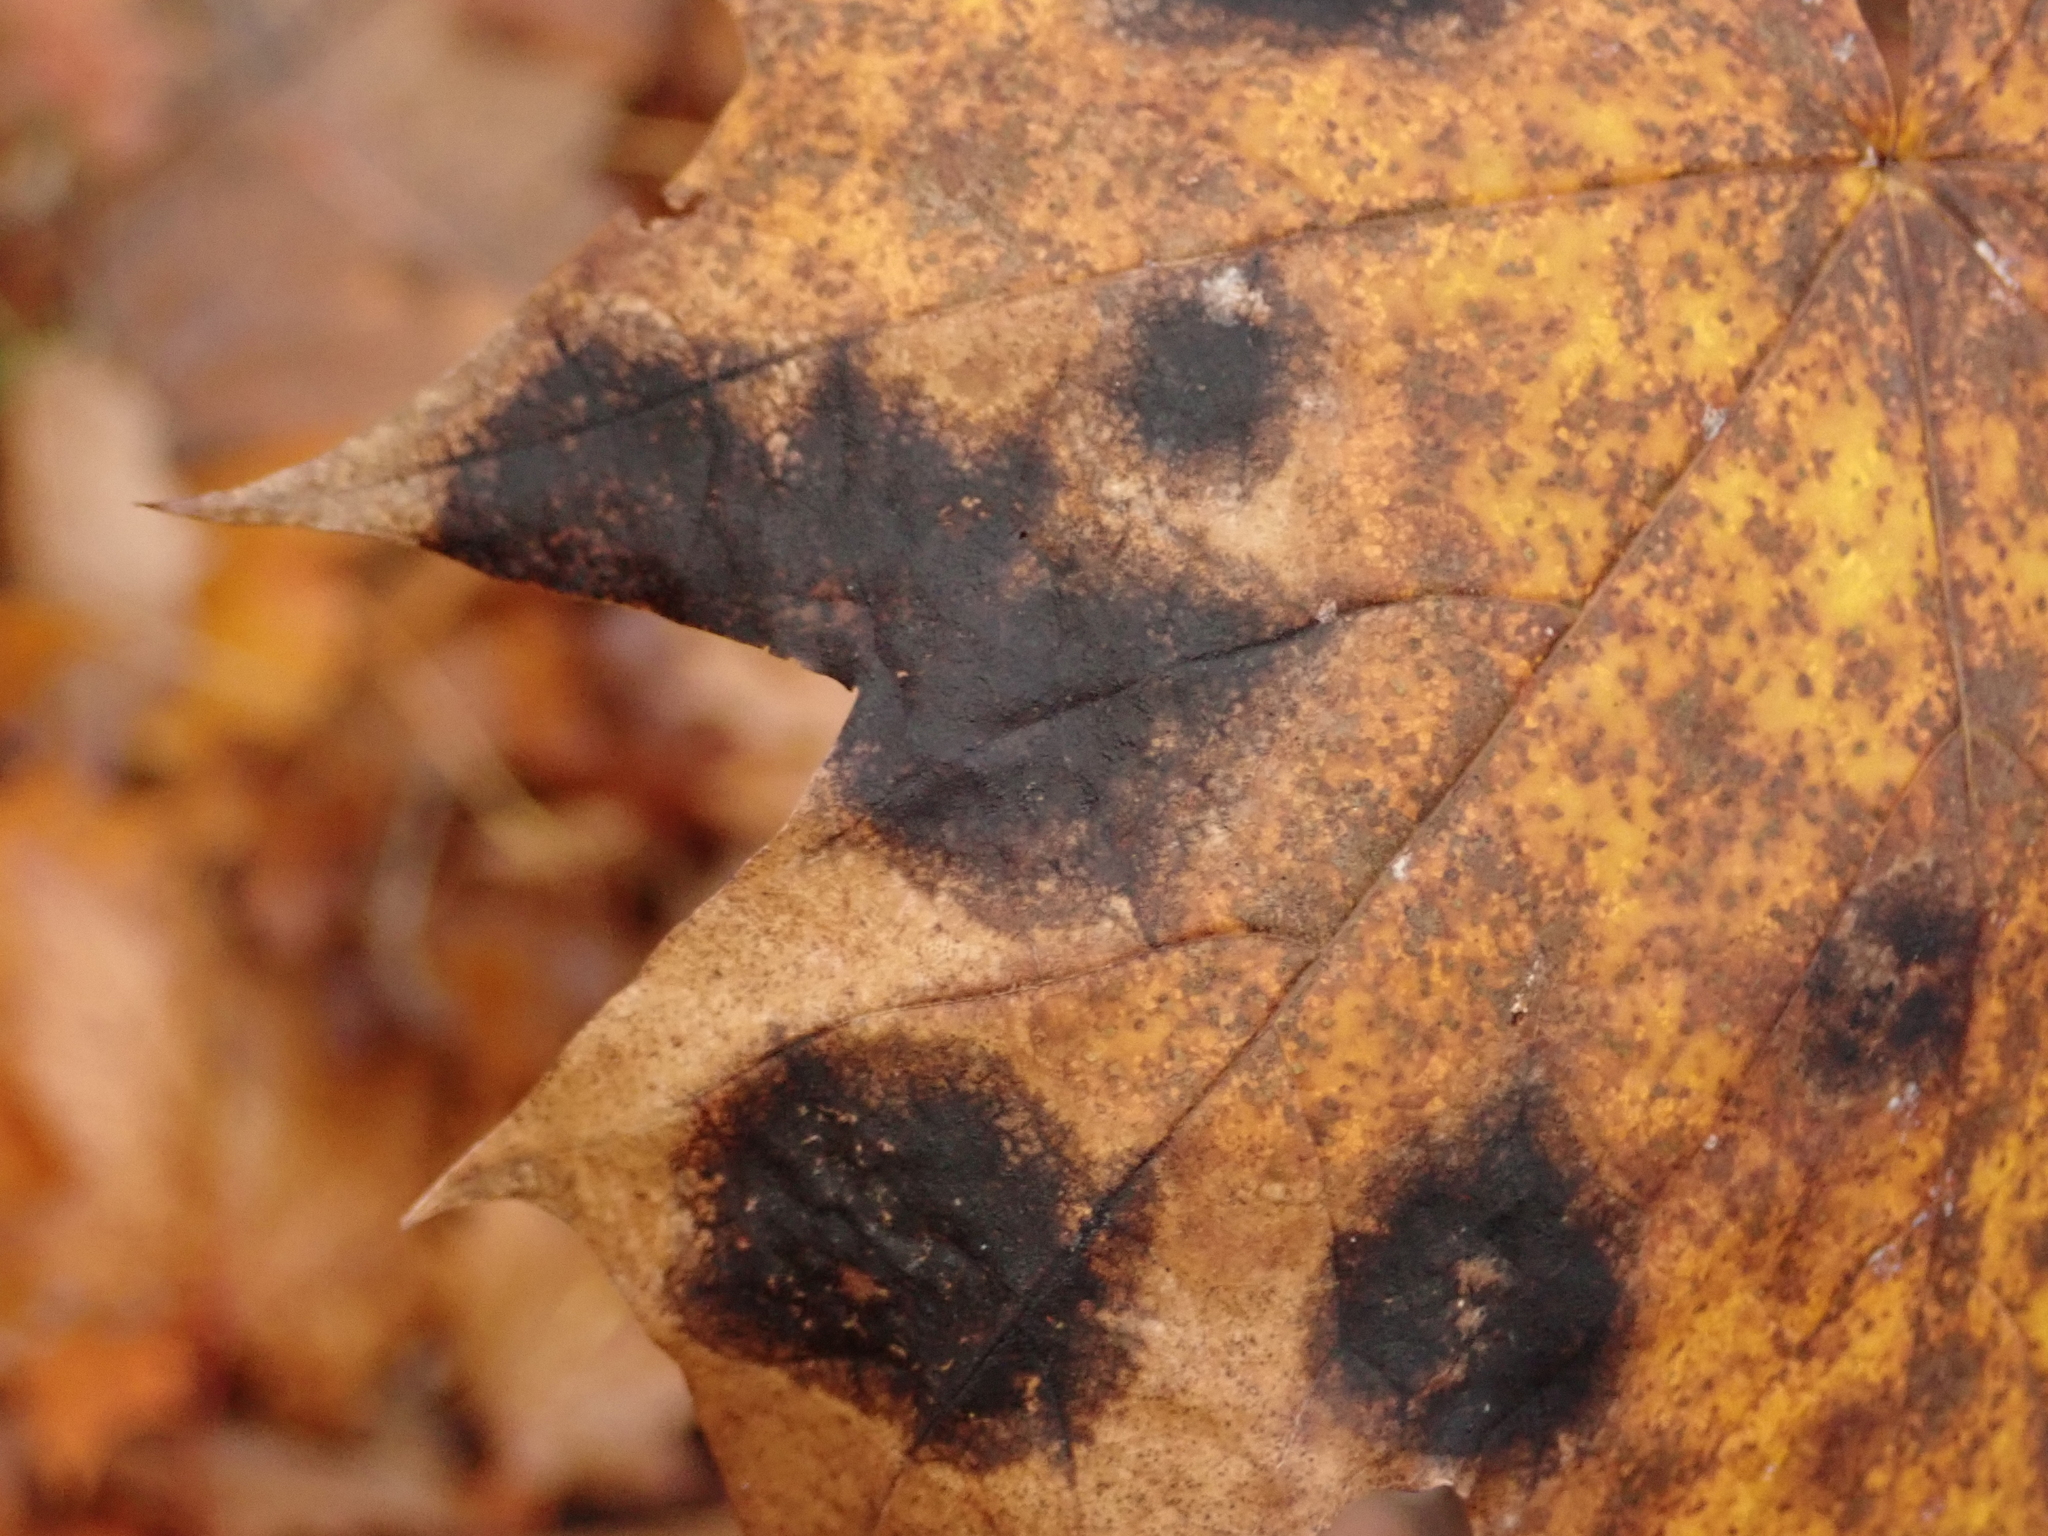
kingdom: Fungi
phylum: Ascomycota
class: Leotiomycetes
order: Rhytismatales
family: Rhytismataceae
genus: Rhytisma
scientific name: Rhytisma acerinum
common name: European tar spot
